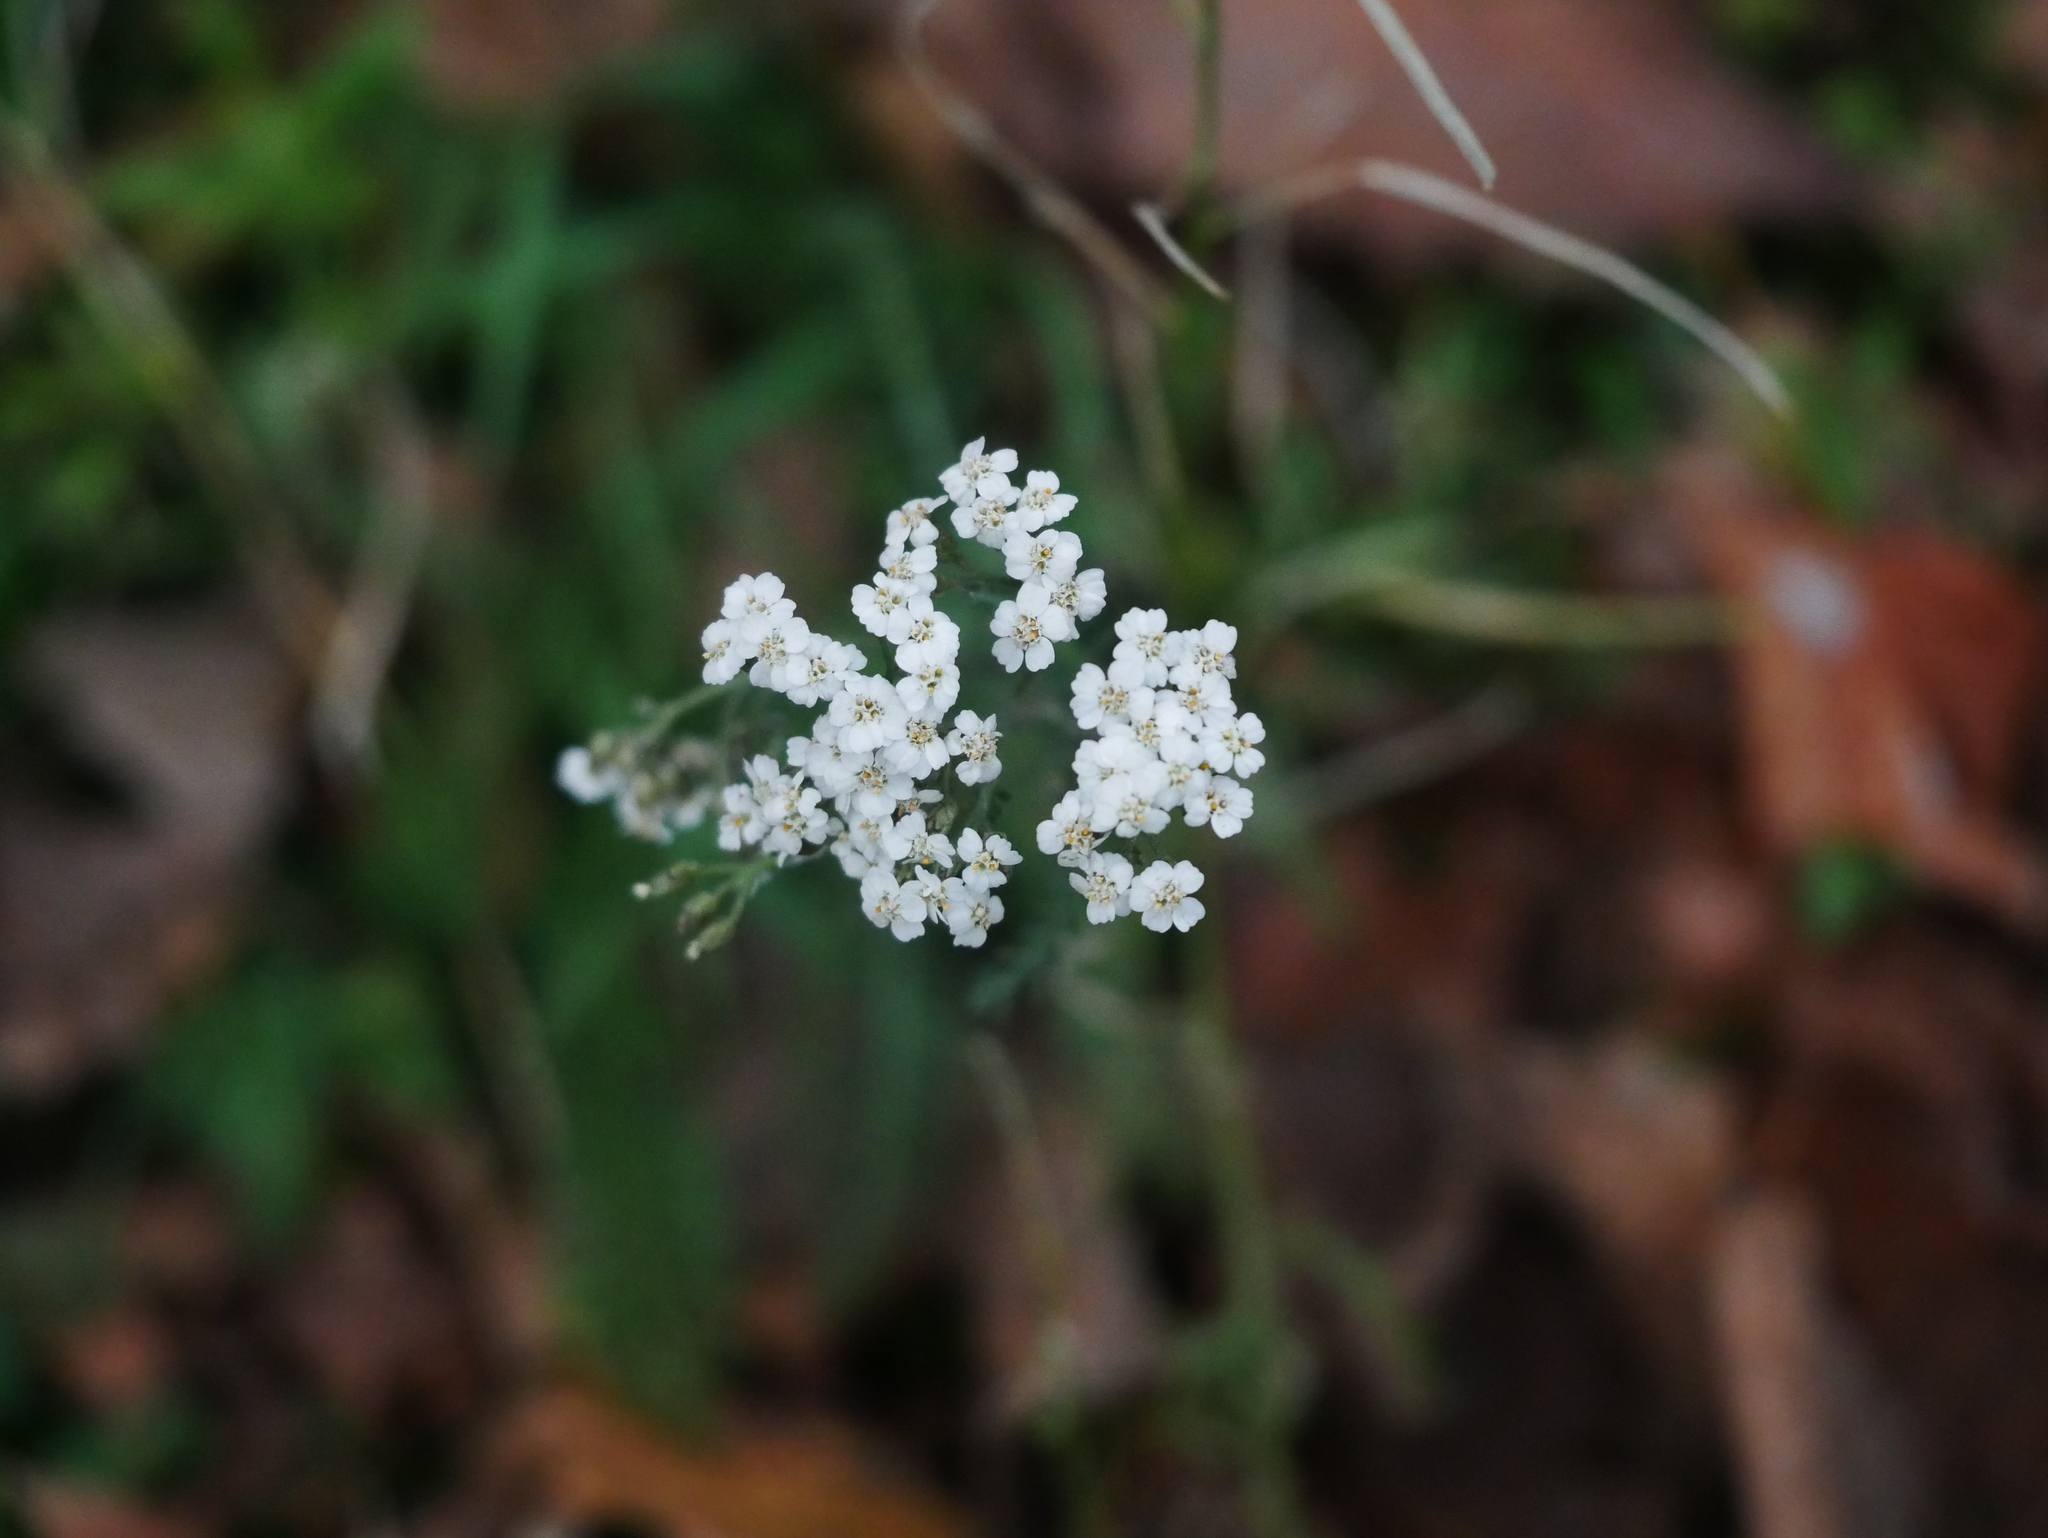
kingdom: Plantae
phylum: Tracheophyta
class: Magnoliopsida
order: Asterales
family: Asteraceae
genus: Achillea
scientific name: Achillea millefolium
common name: Yarrow
